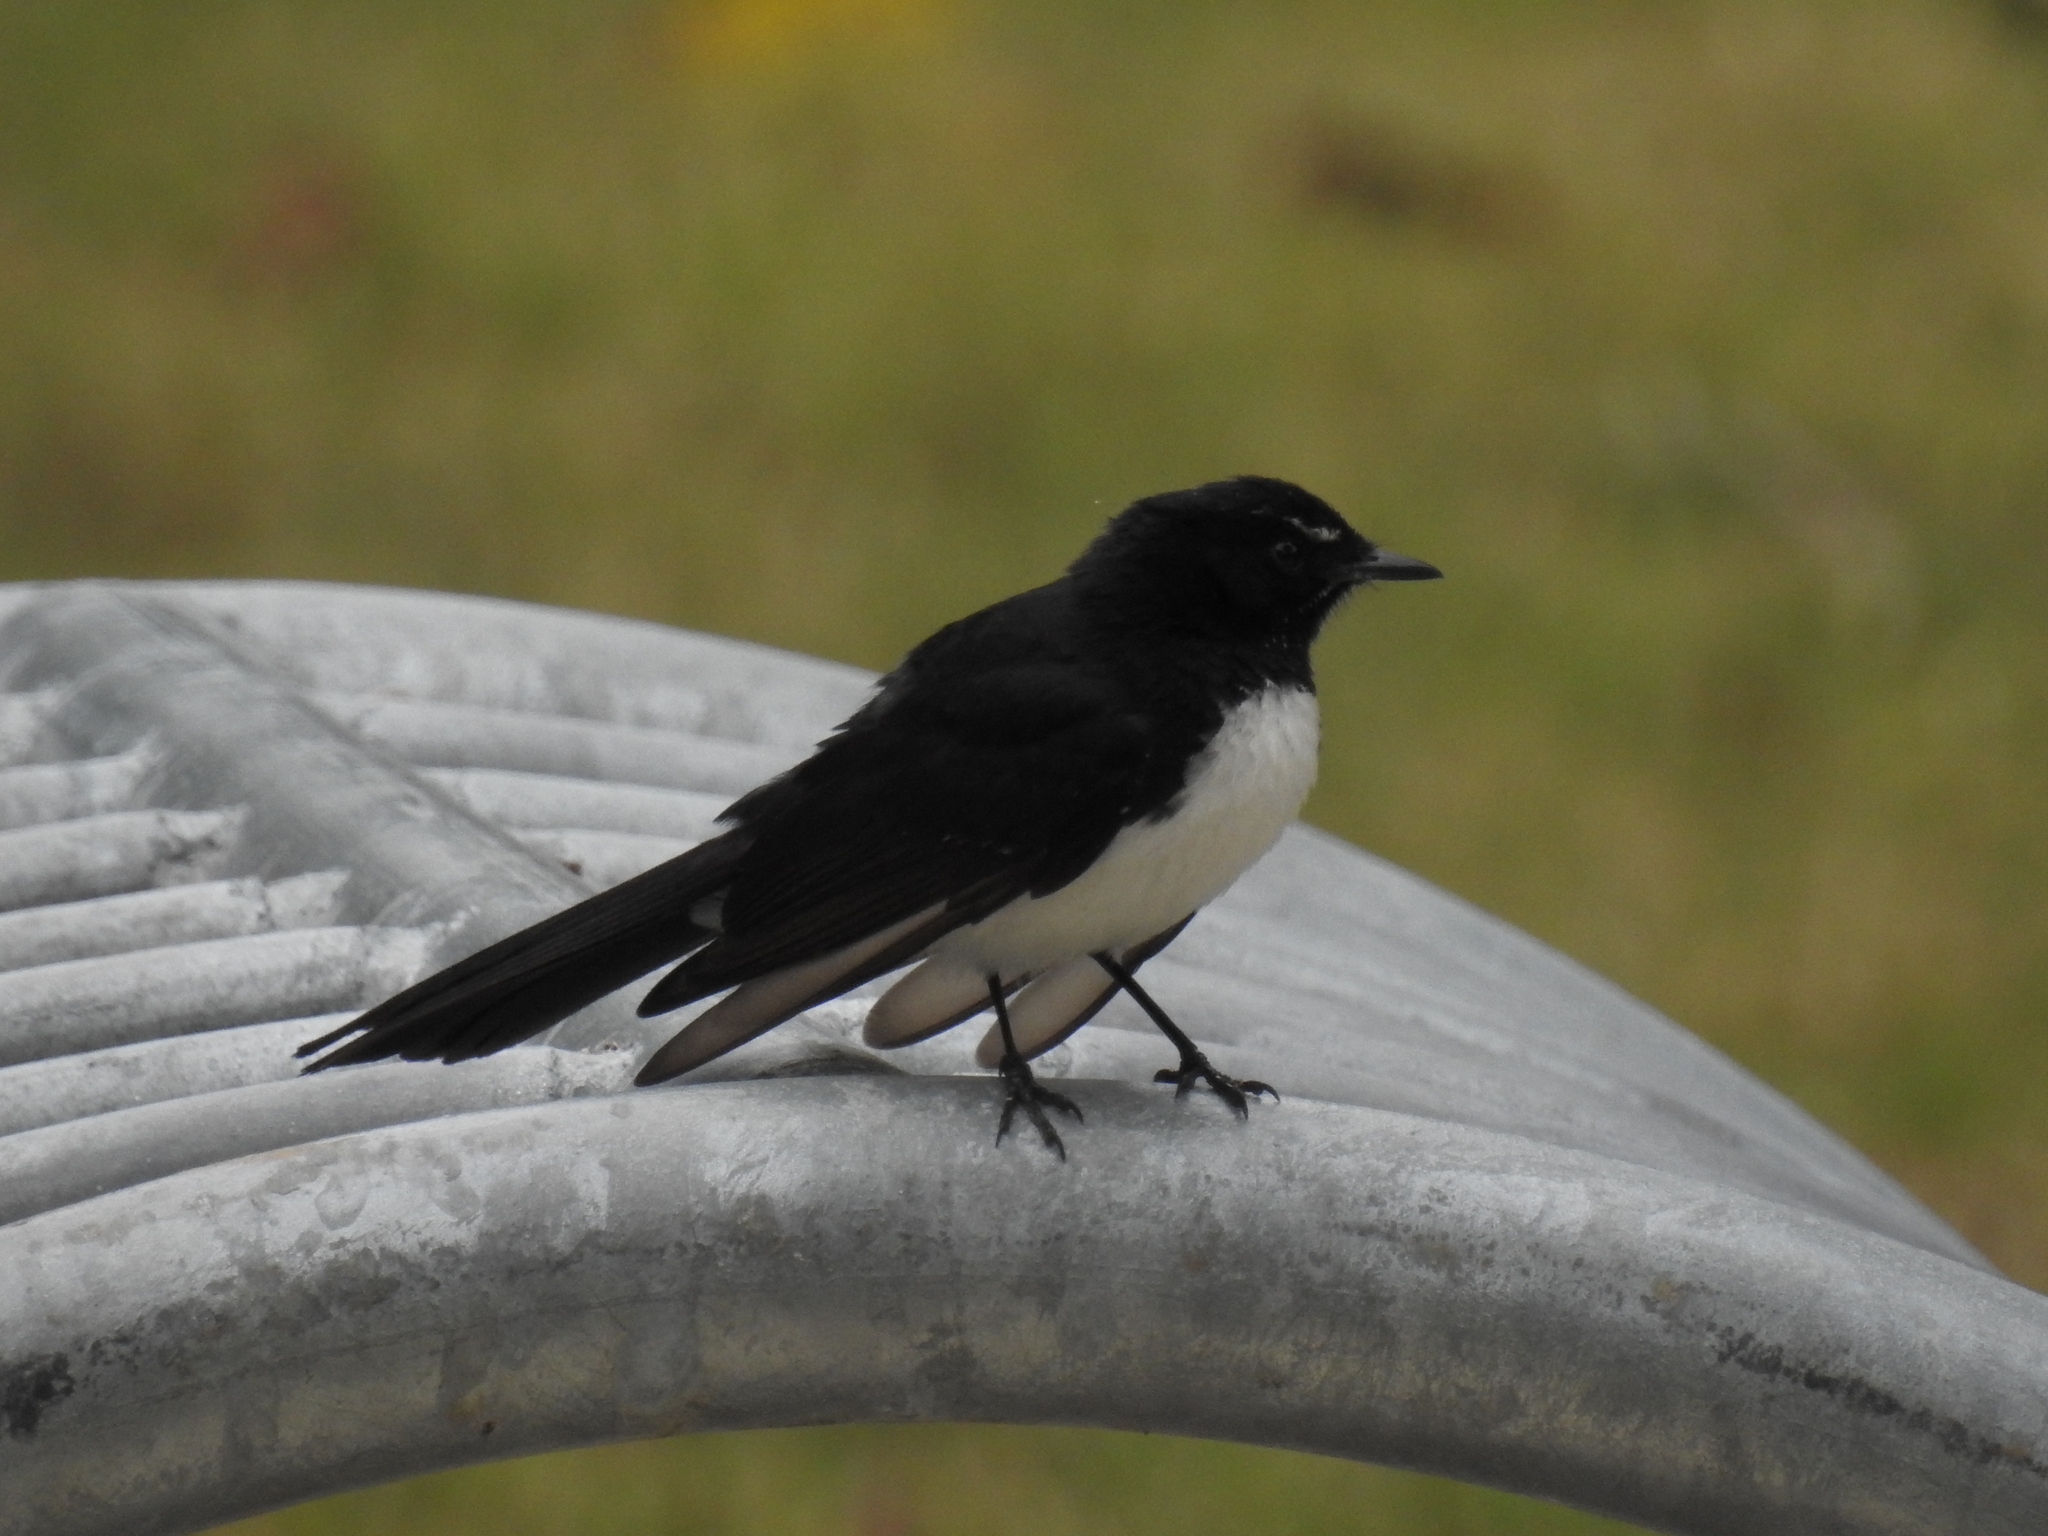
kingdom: Animalia
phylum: Chordata
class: Aves
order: Passeriformes
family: Rhipiduridae
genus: Rhipidura
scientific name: Rhipidura leucophrys
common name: Willie wagtail
